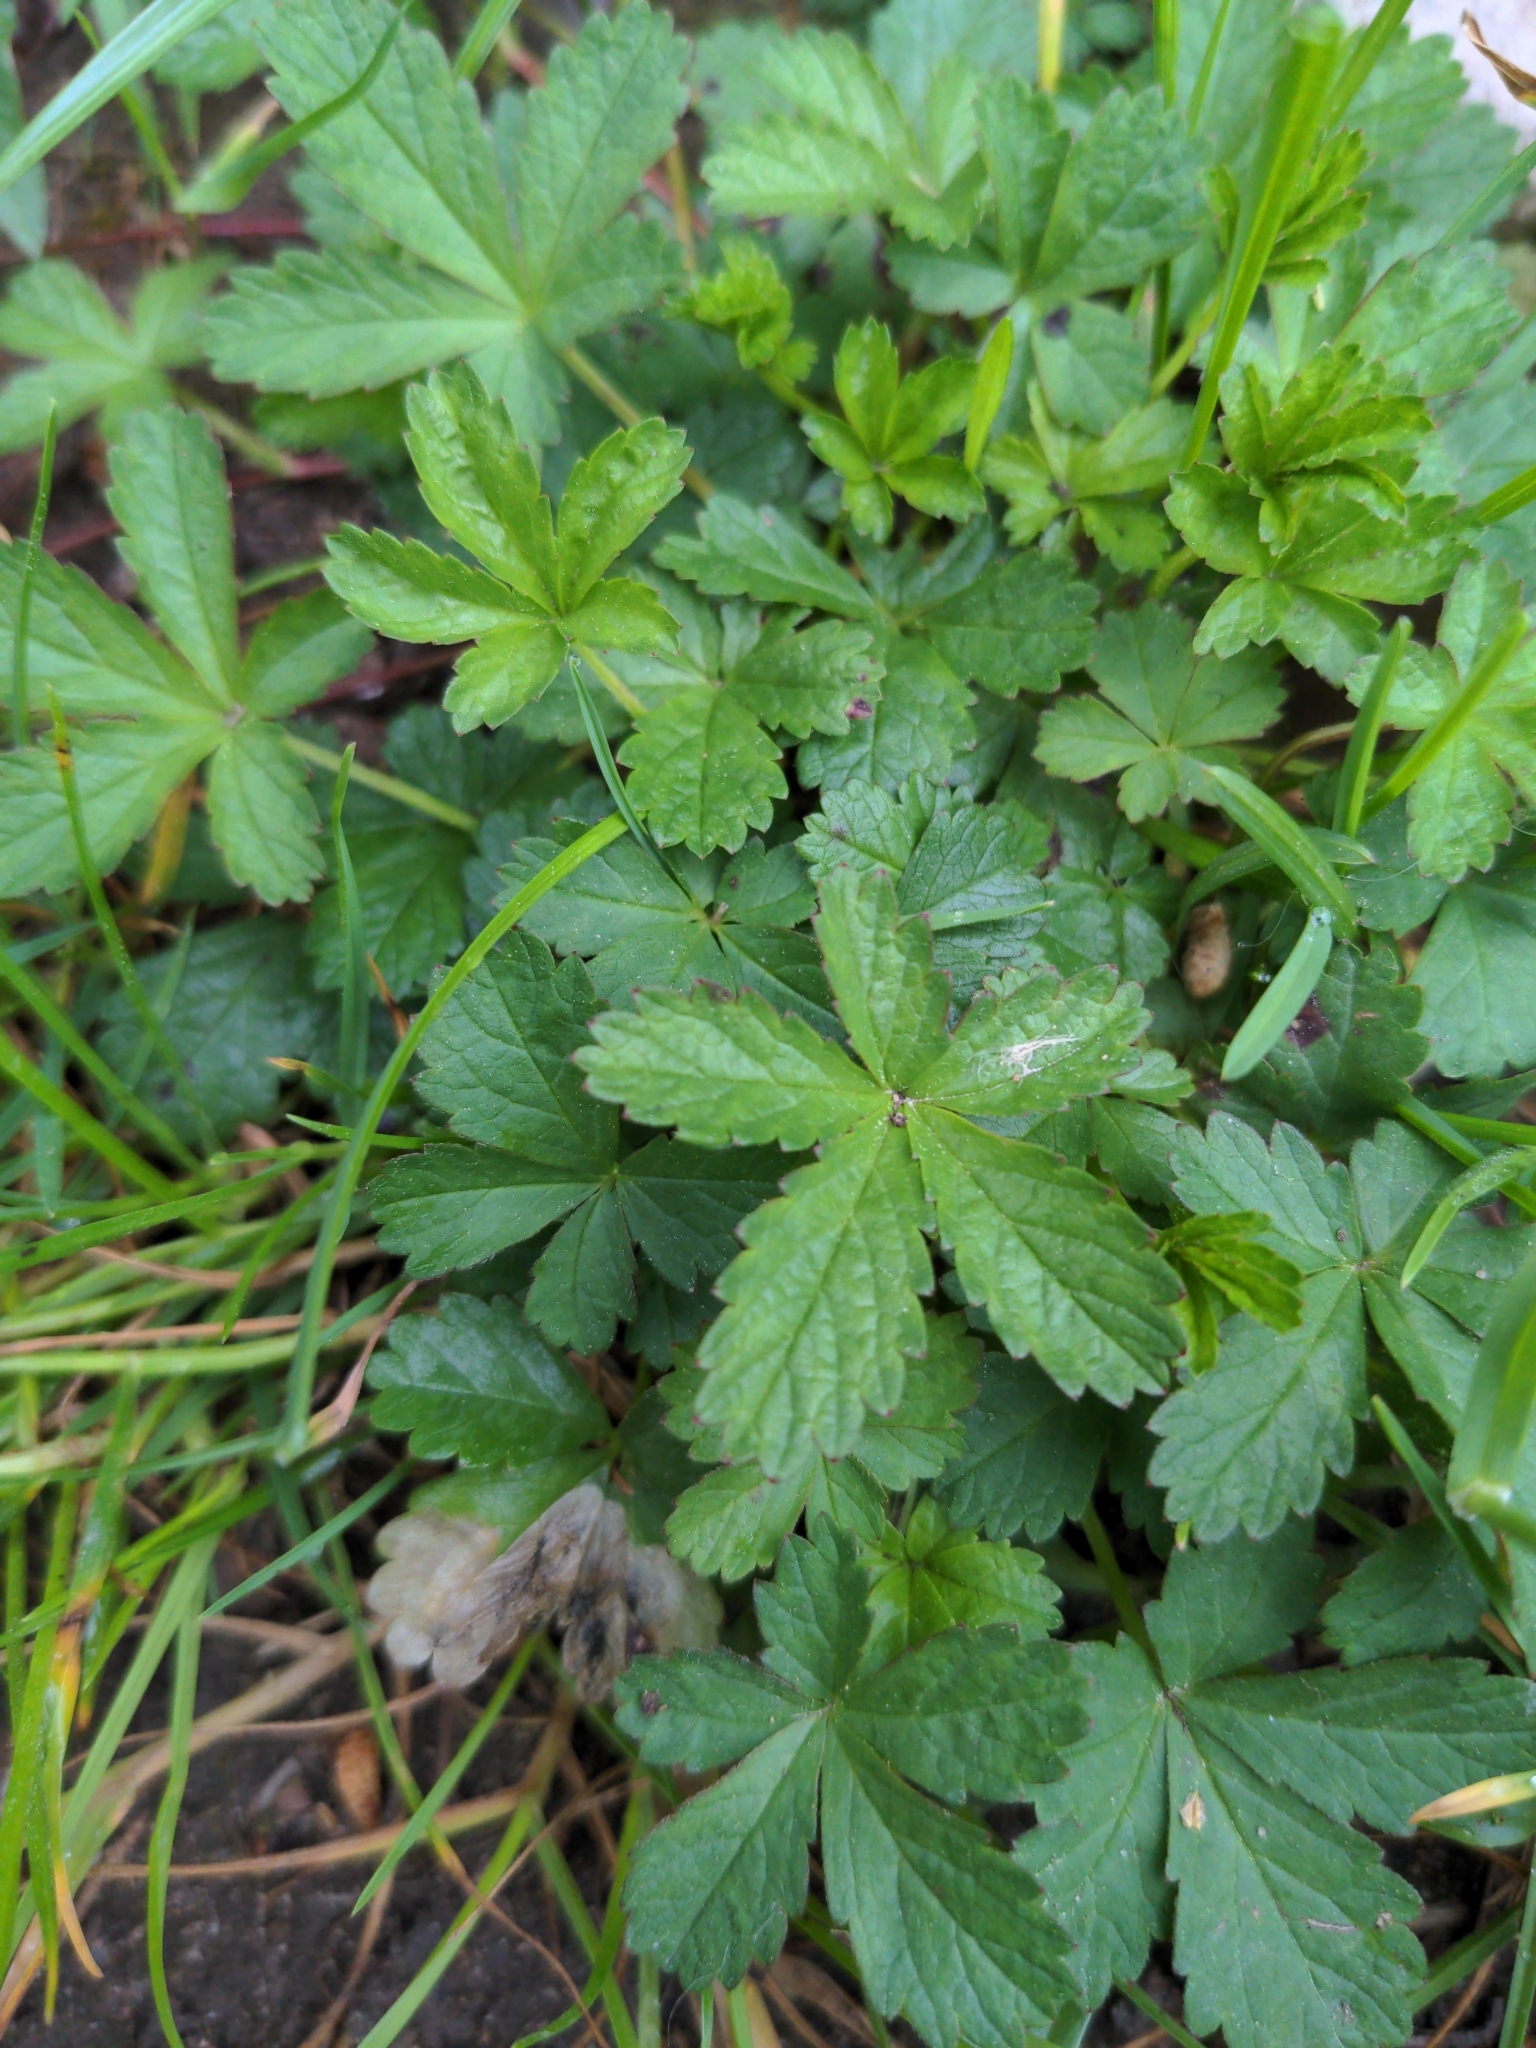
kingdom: Plantae
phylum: Tracheophyta
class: Magnoliopsida
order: Rosales
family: Rosaceae
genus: Potentilla
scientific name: Potentilla reptans
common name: Creeping cinquefoil
